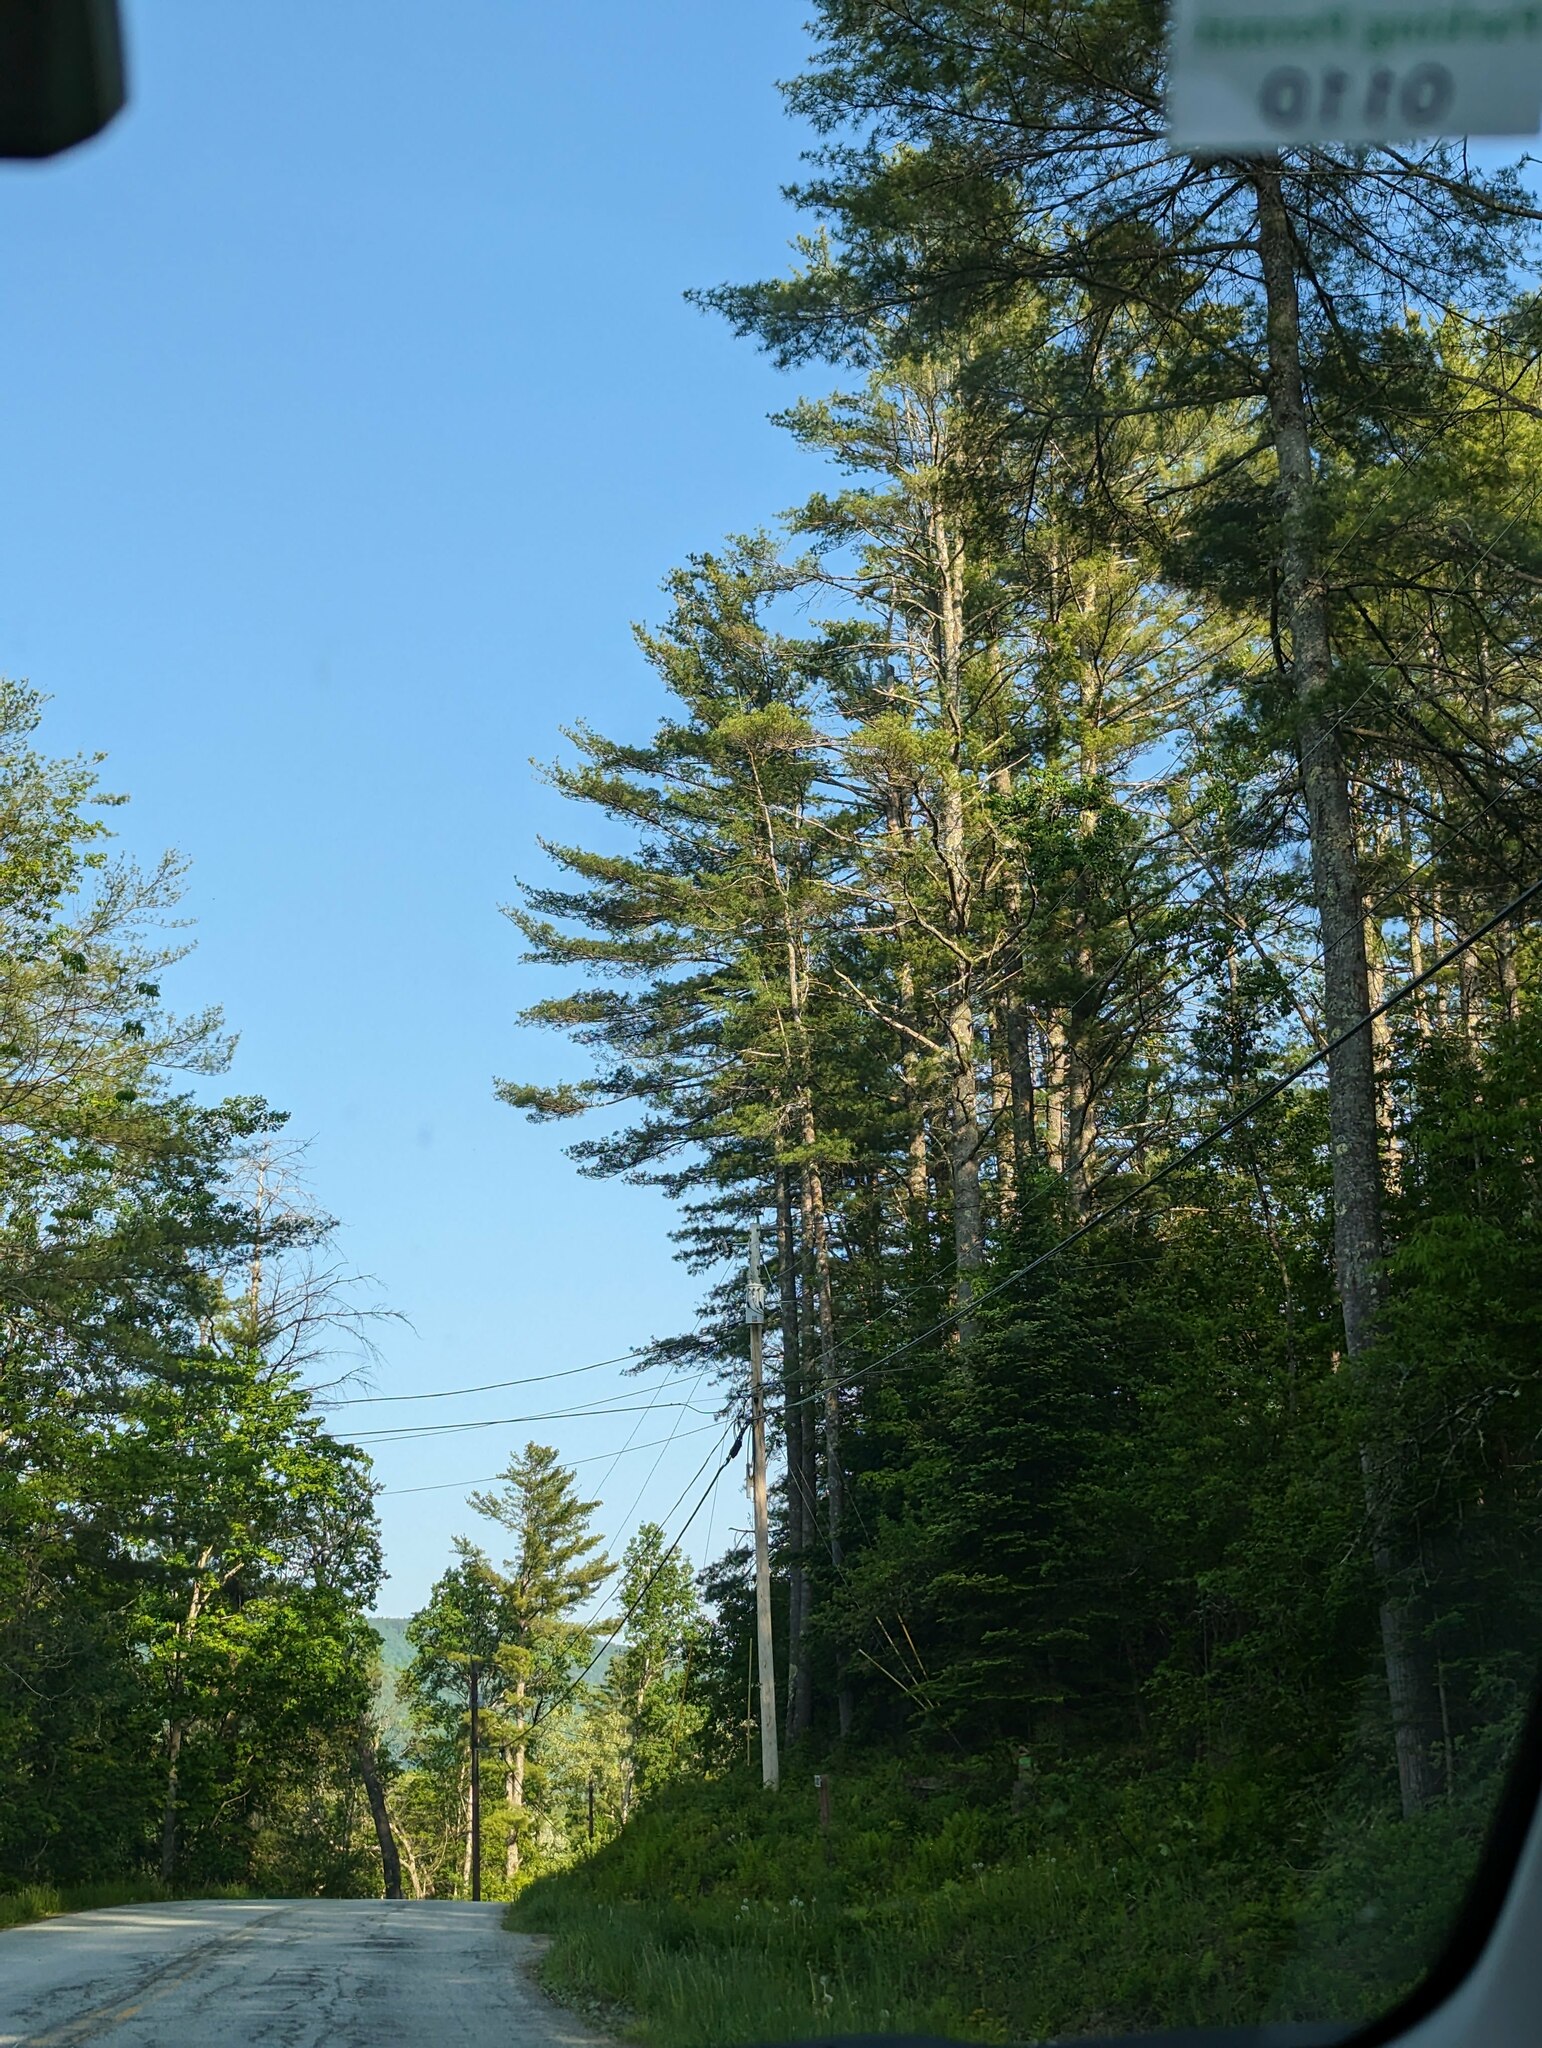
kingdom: Plantae
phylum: Tracheophyta
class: Pinopsida
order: Pinales
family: Pinaceae
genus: Pinus
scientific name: Pinus strobus
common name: Weymouth pine
